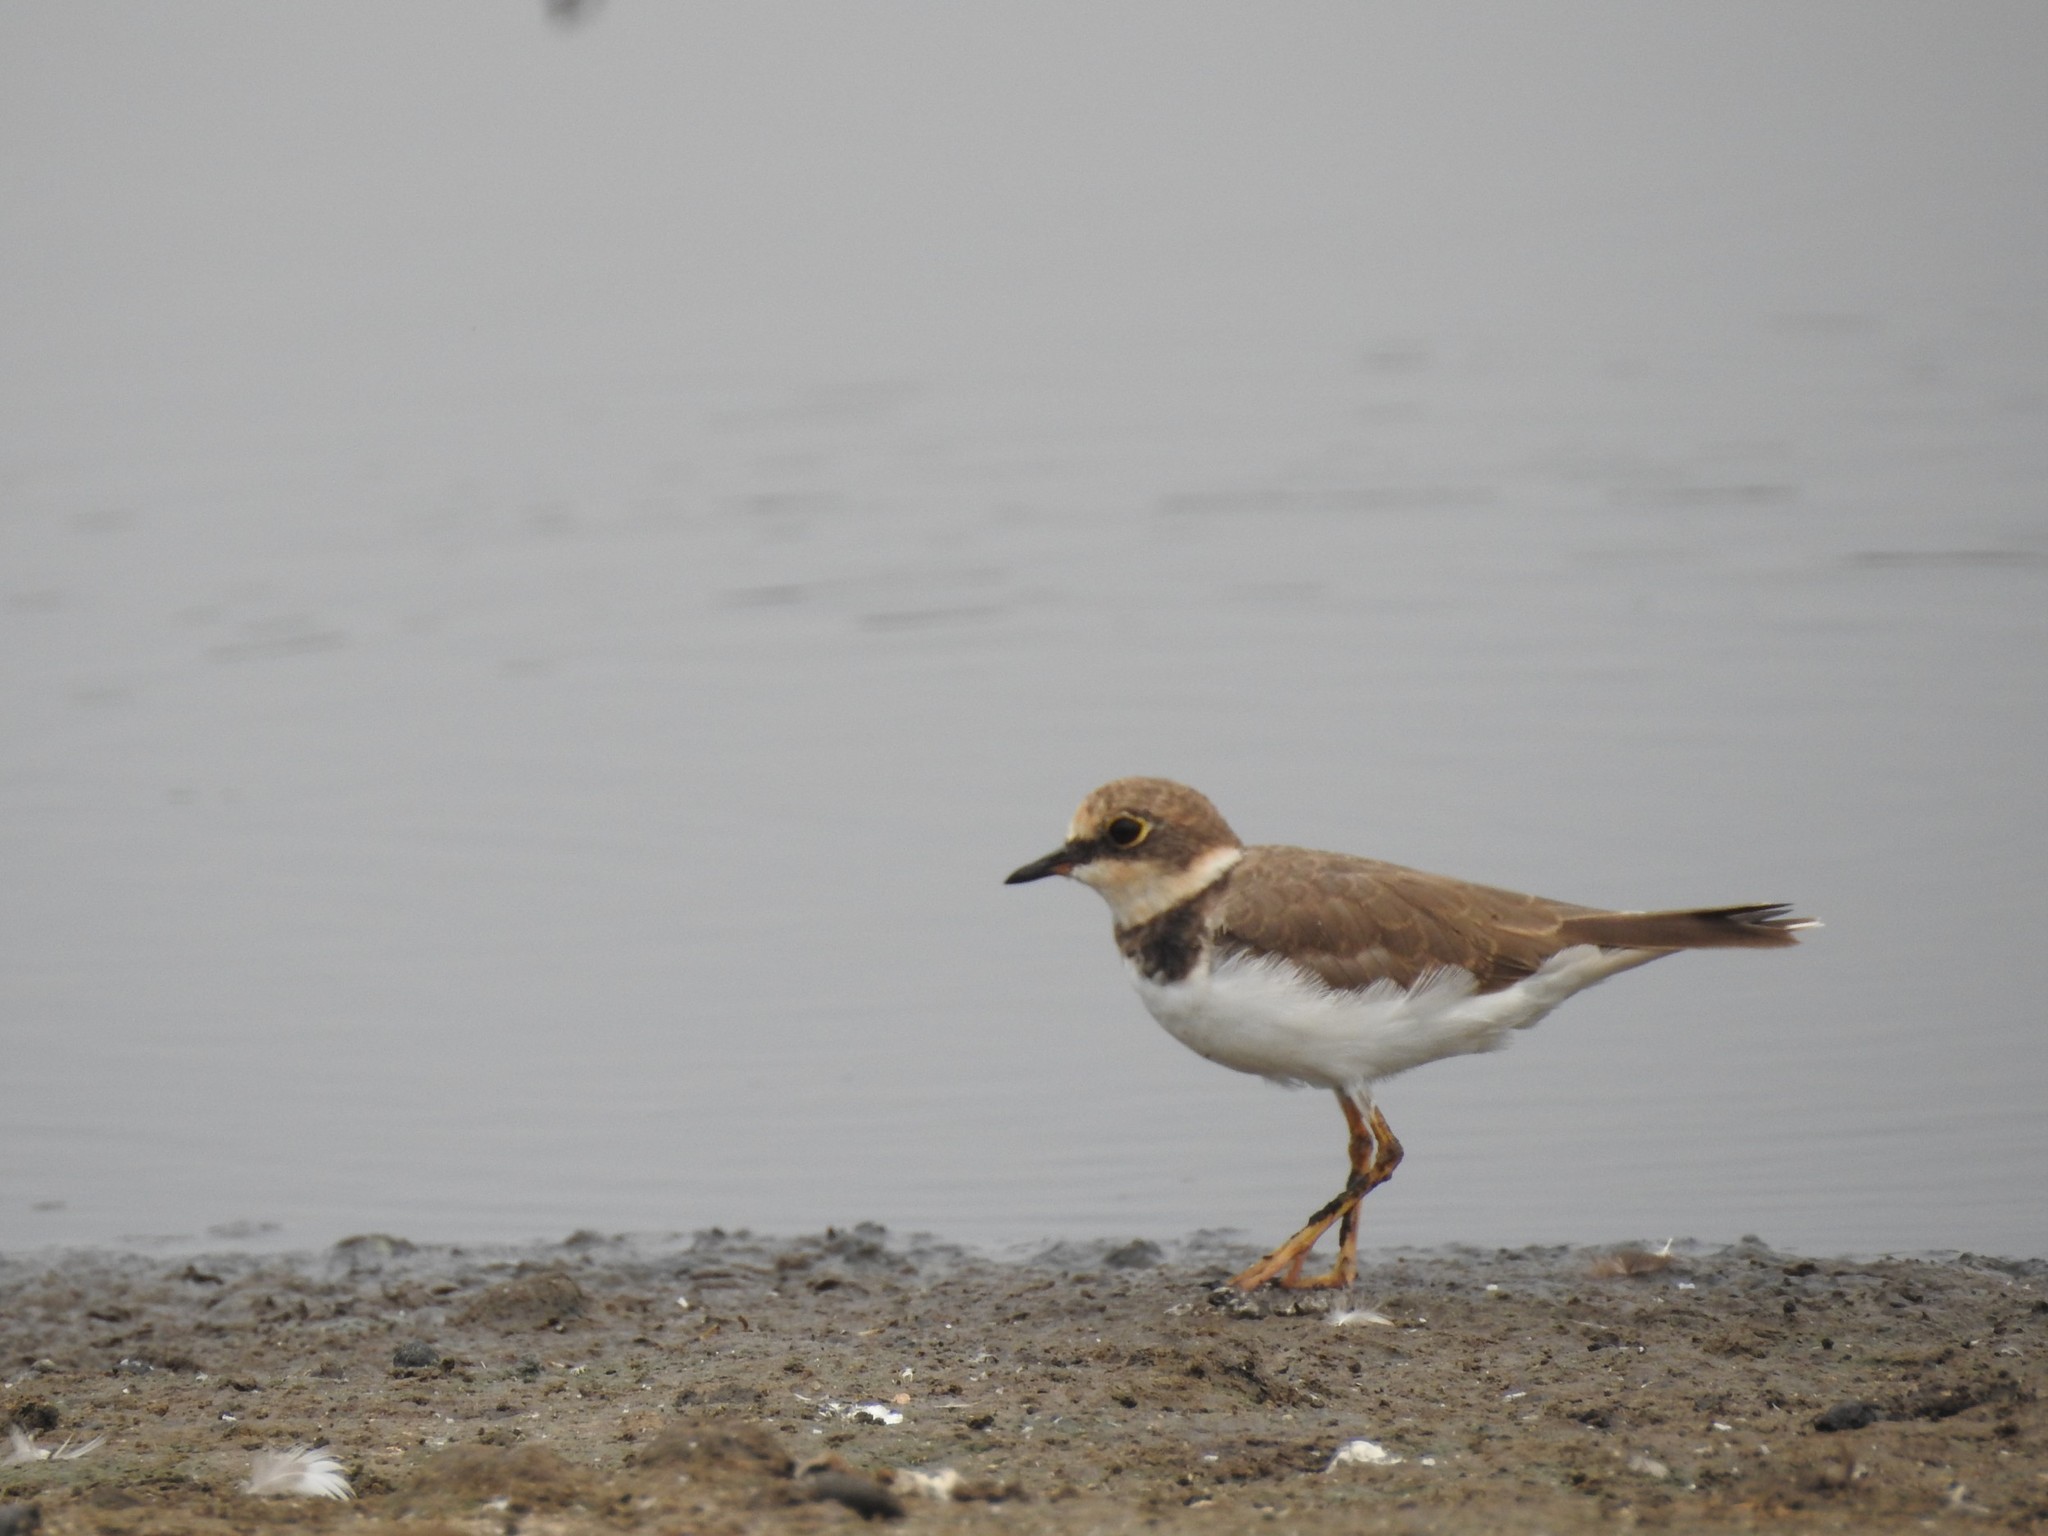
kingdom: Animalia
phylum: Chordata
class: Aves
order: Charadriiformes
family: Charadriidae
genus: Charadrius
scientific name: Charadrius dubius
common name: Little ringed plover
